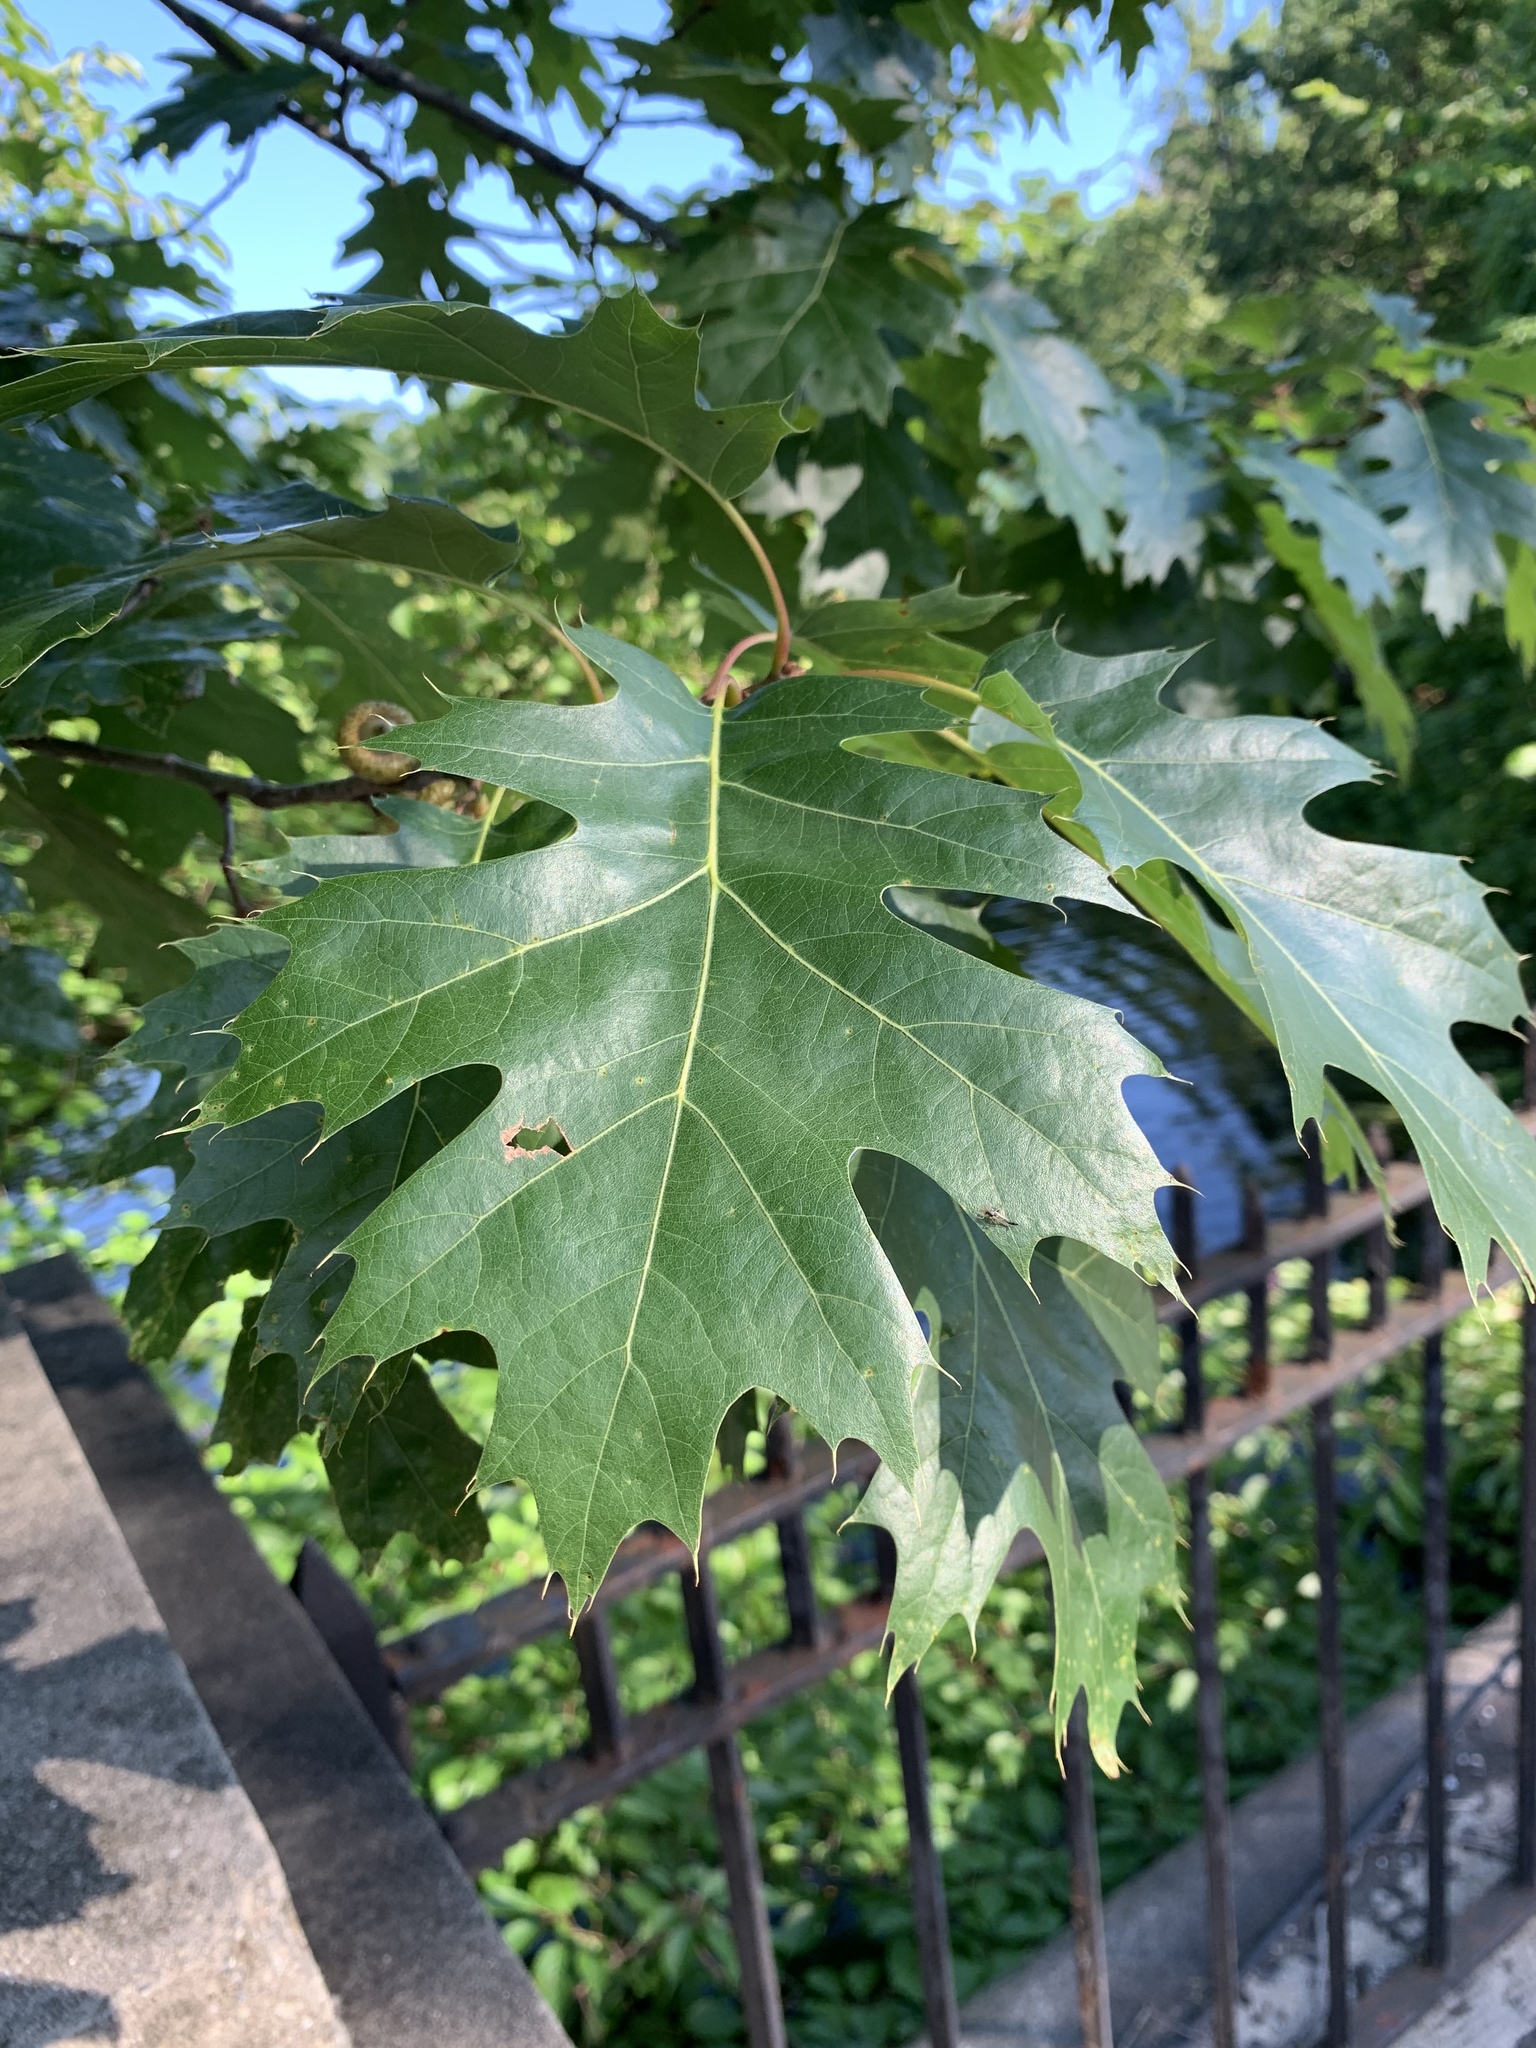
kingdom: Plantae
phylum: Tracheophyta
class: Magnoliopsida
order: Fagales
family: Fagaceae
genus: Quercus
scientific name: Quercus rubra
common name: Red oak
